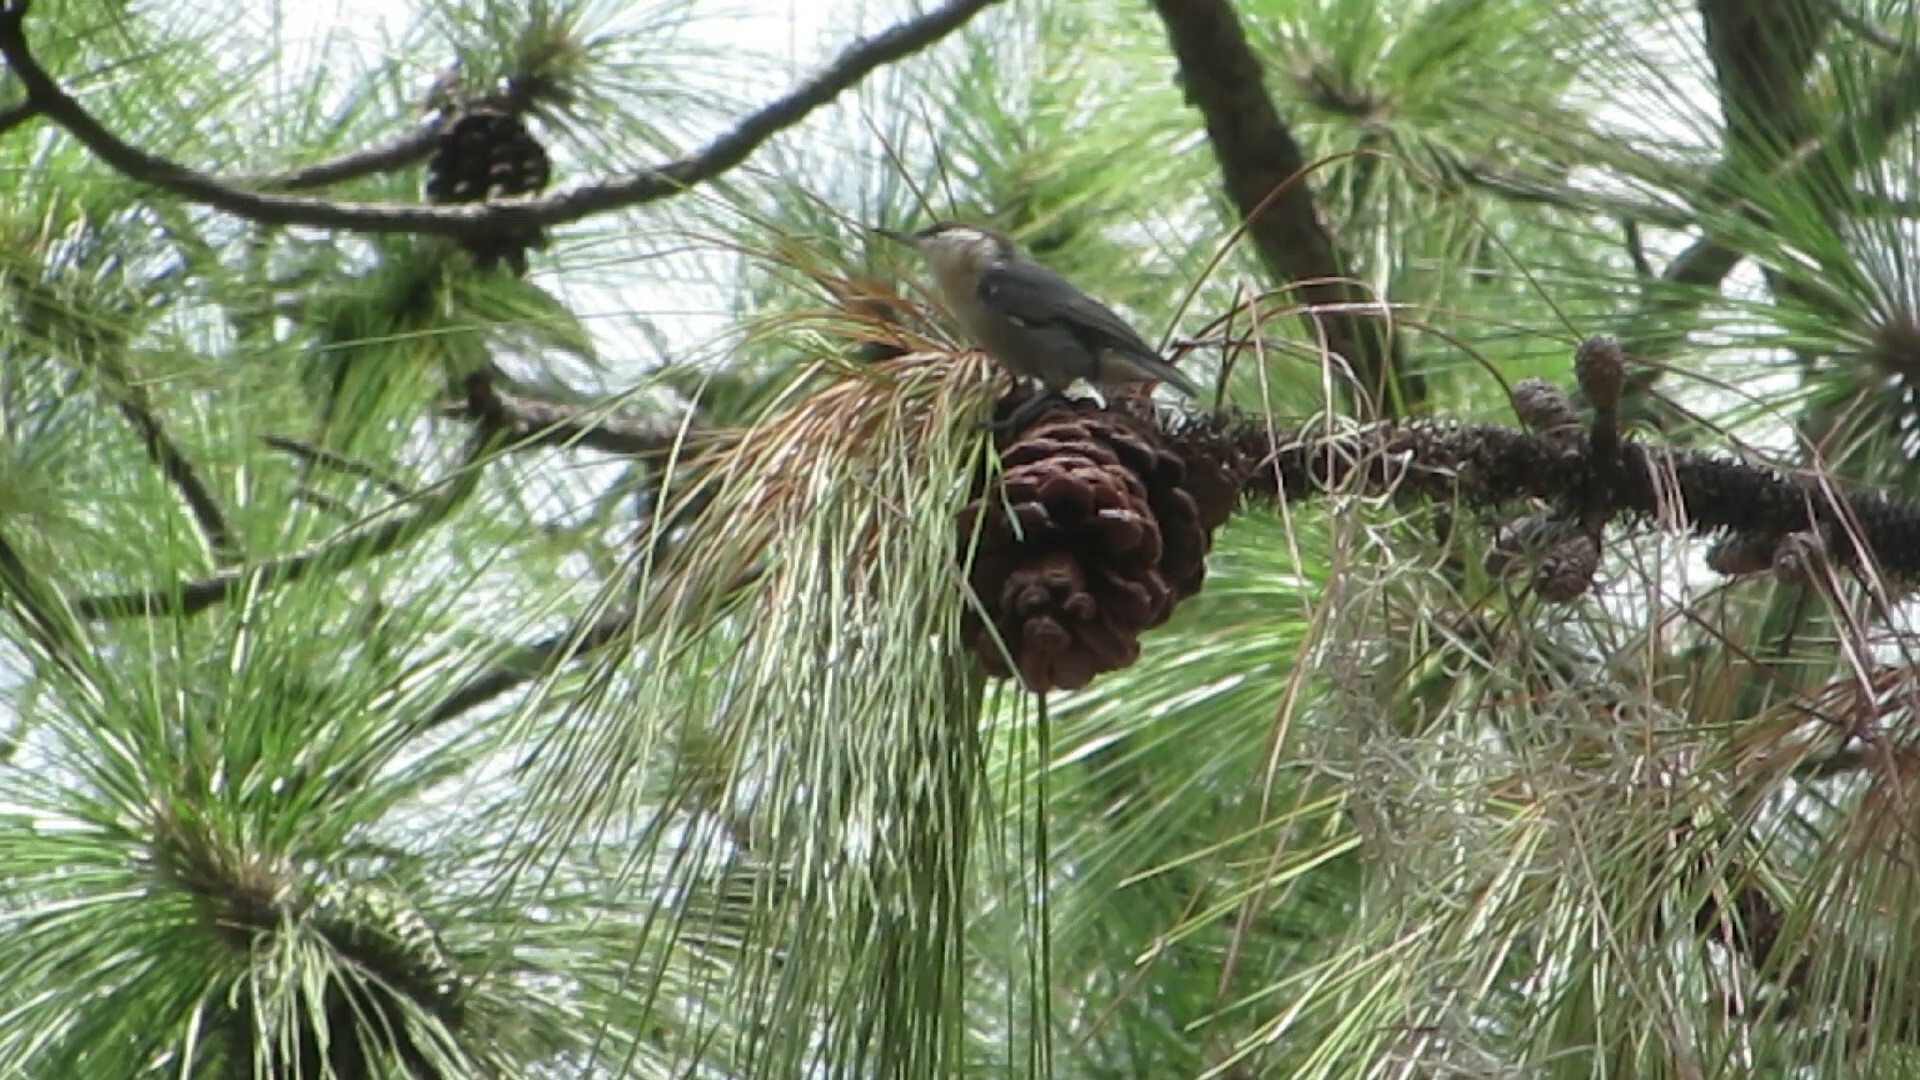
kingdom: Animalia
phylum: Chordata
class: Aves
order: Passeriformes
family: Sittidae
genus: Sitta
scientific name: Sitta pusilla
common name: Brown-headed nuthatch
